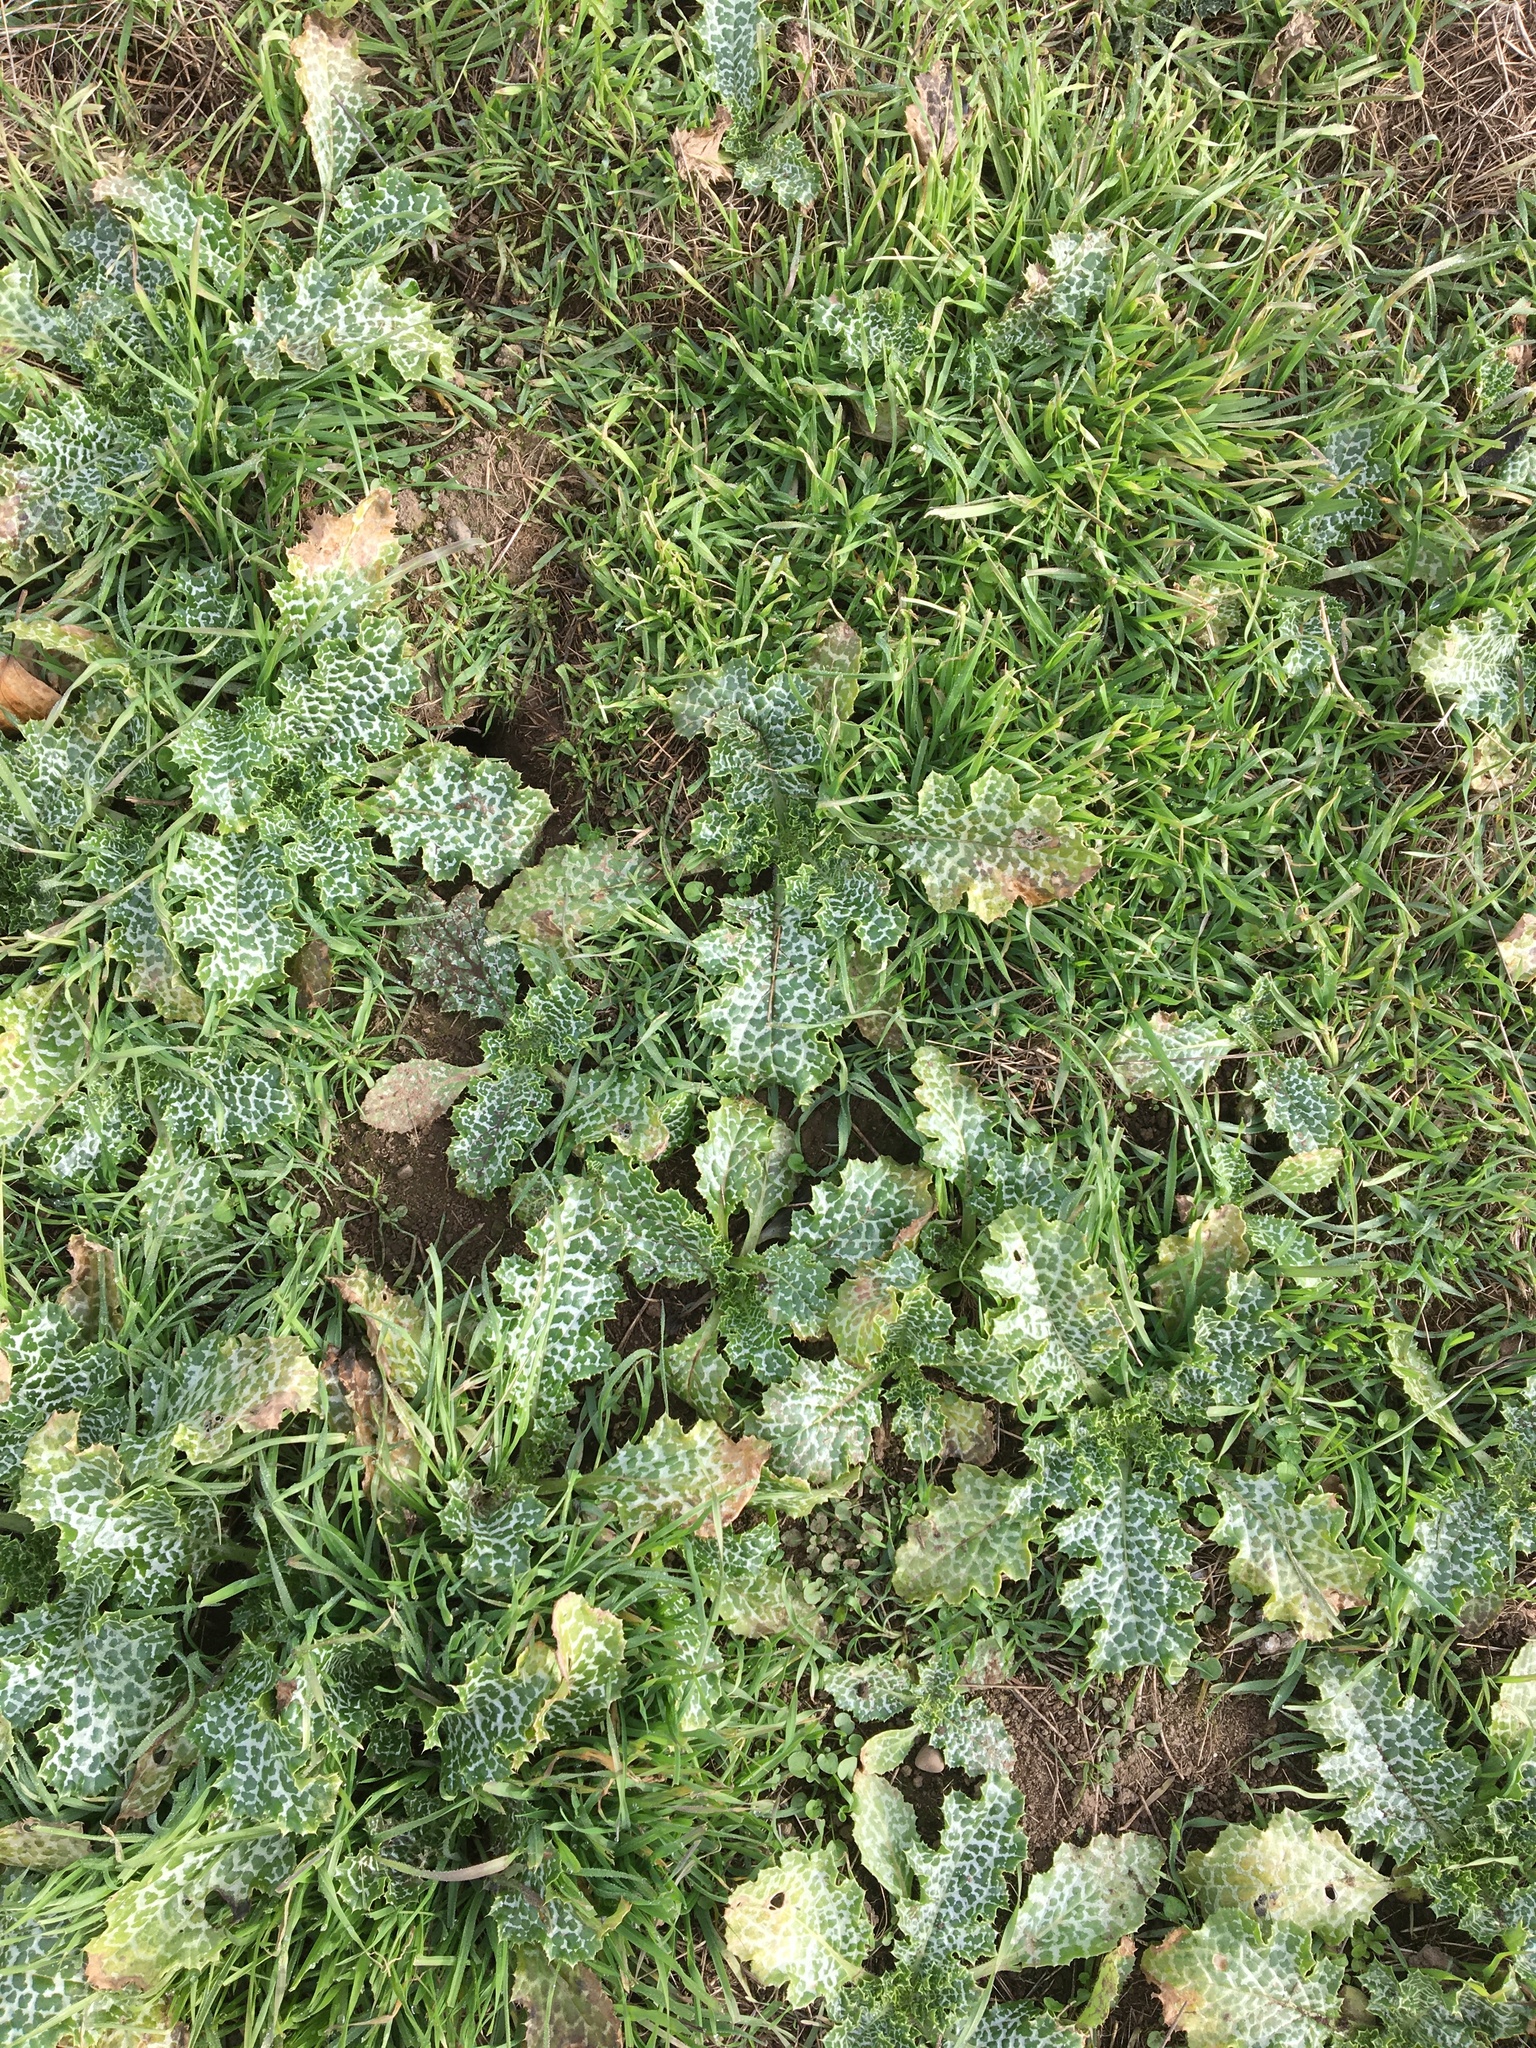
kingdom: Plantae
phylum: Tracheophyta
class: Magnoliopsida
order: Asterales
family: Asteraceae
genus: Silybum
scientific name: Silybum marianum
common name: Milk thistle
